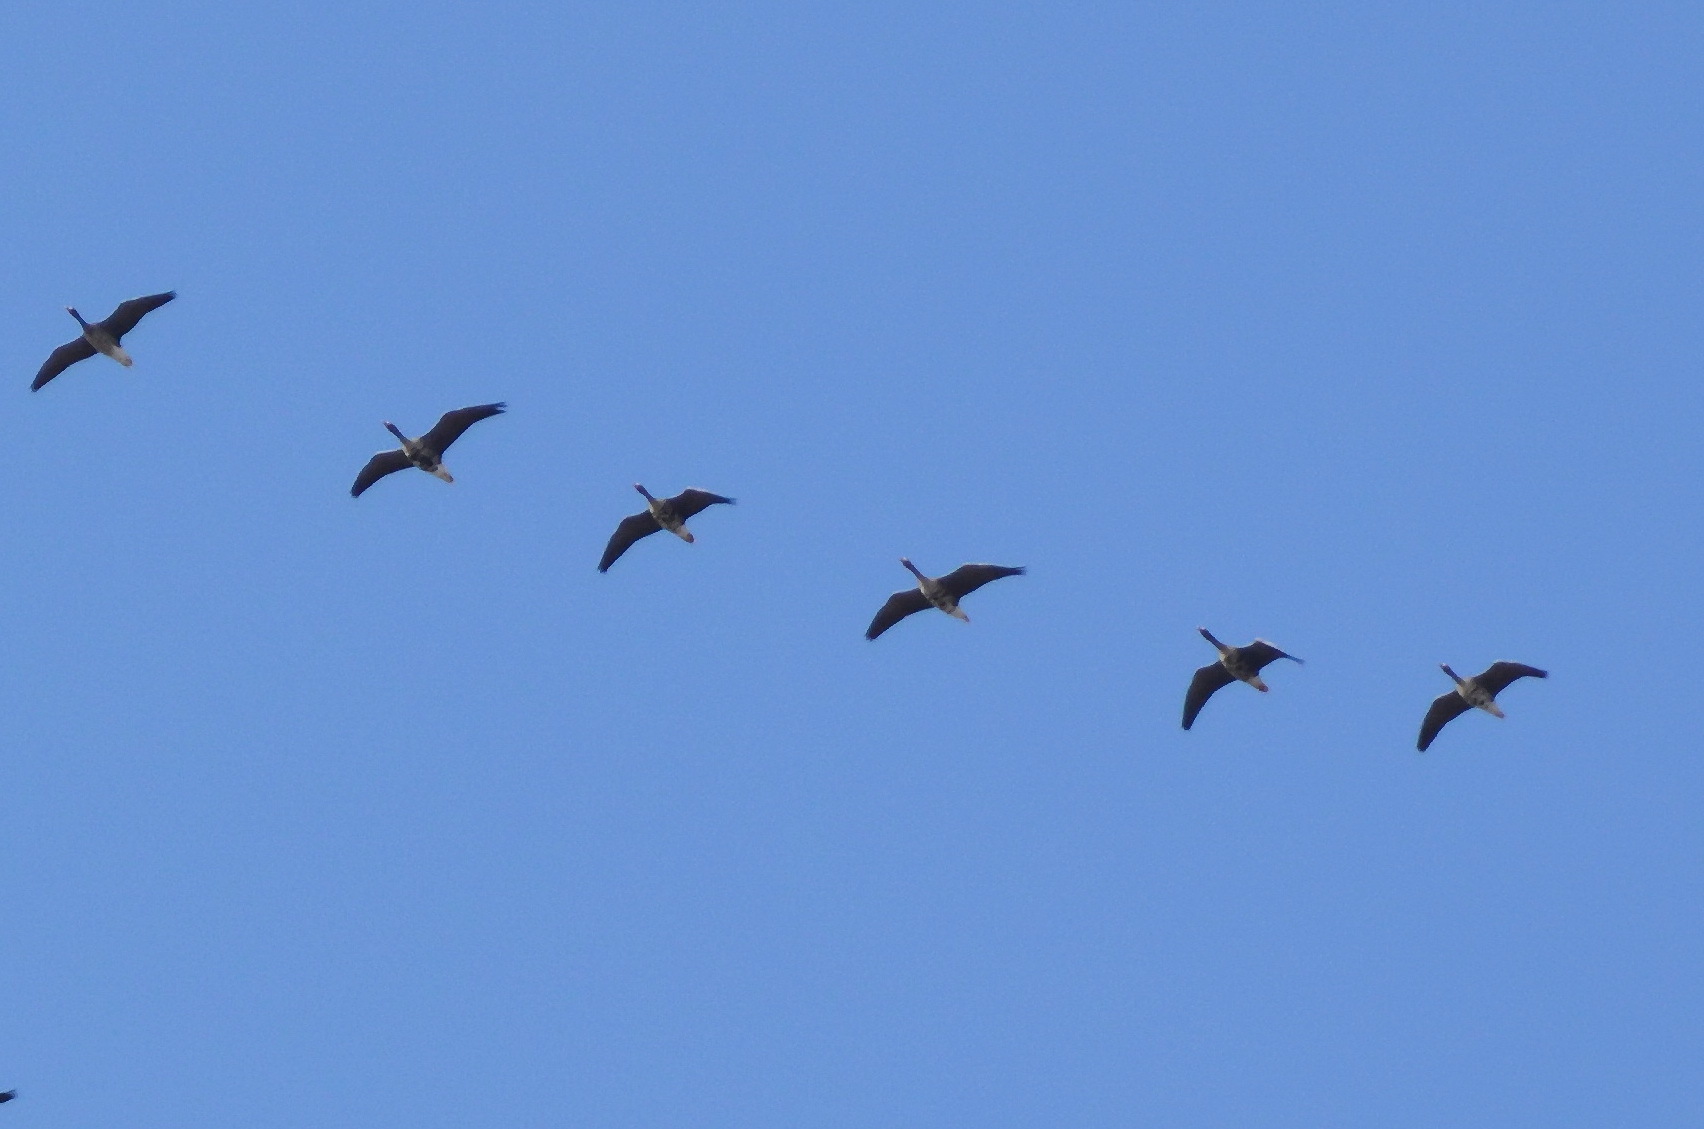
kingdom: Animalia
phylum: Chordata
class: Aves
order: Anseriformes
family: Anatidae
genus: Anser
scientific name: Anser albifrons
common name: Greater white-fronted goose
